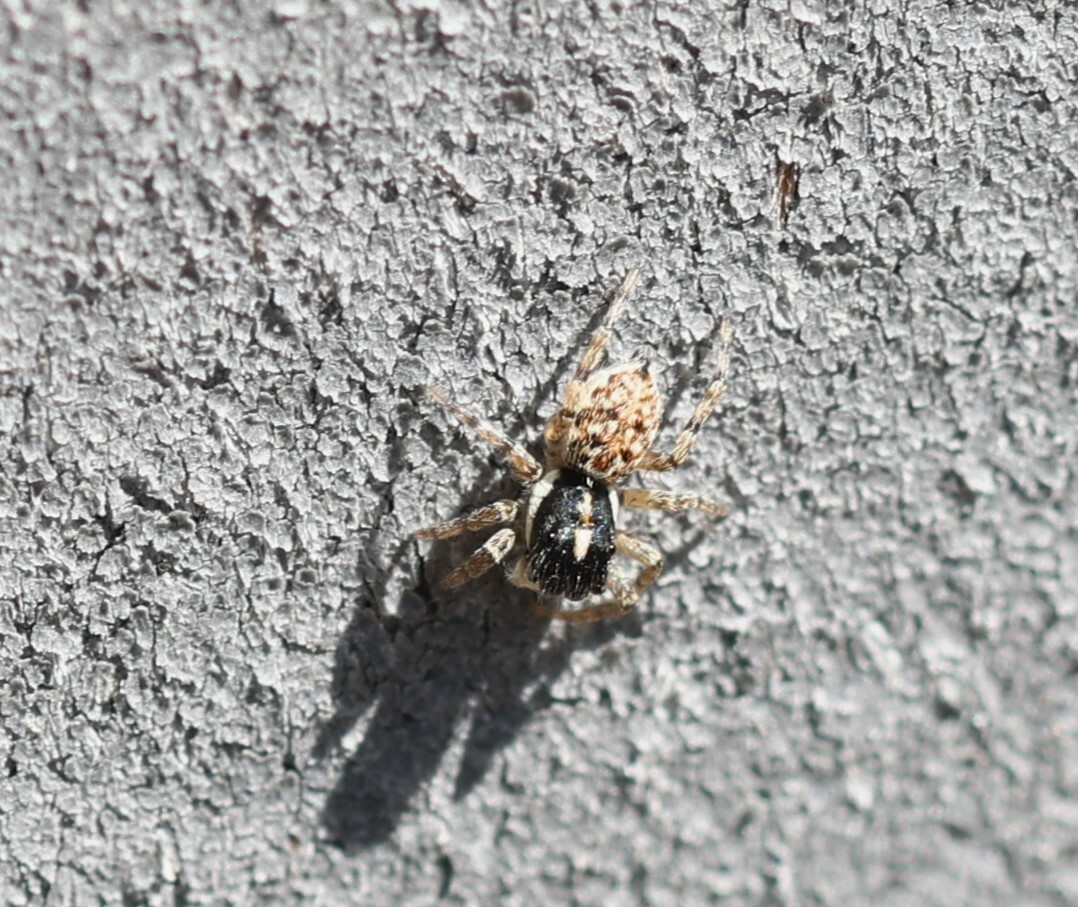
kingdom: Animalia
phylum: Arthropoda
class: Arachnida
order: Araneae
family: Salticidae
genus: Menemerus
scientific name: Menemerus semilimbatus
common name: Jumping spider
